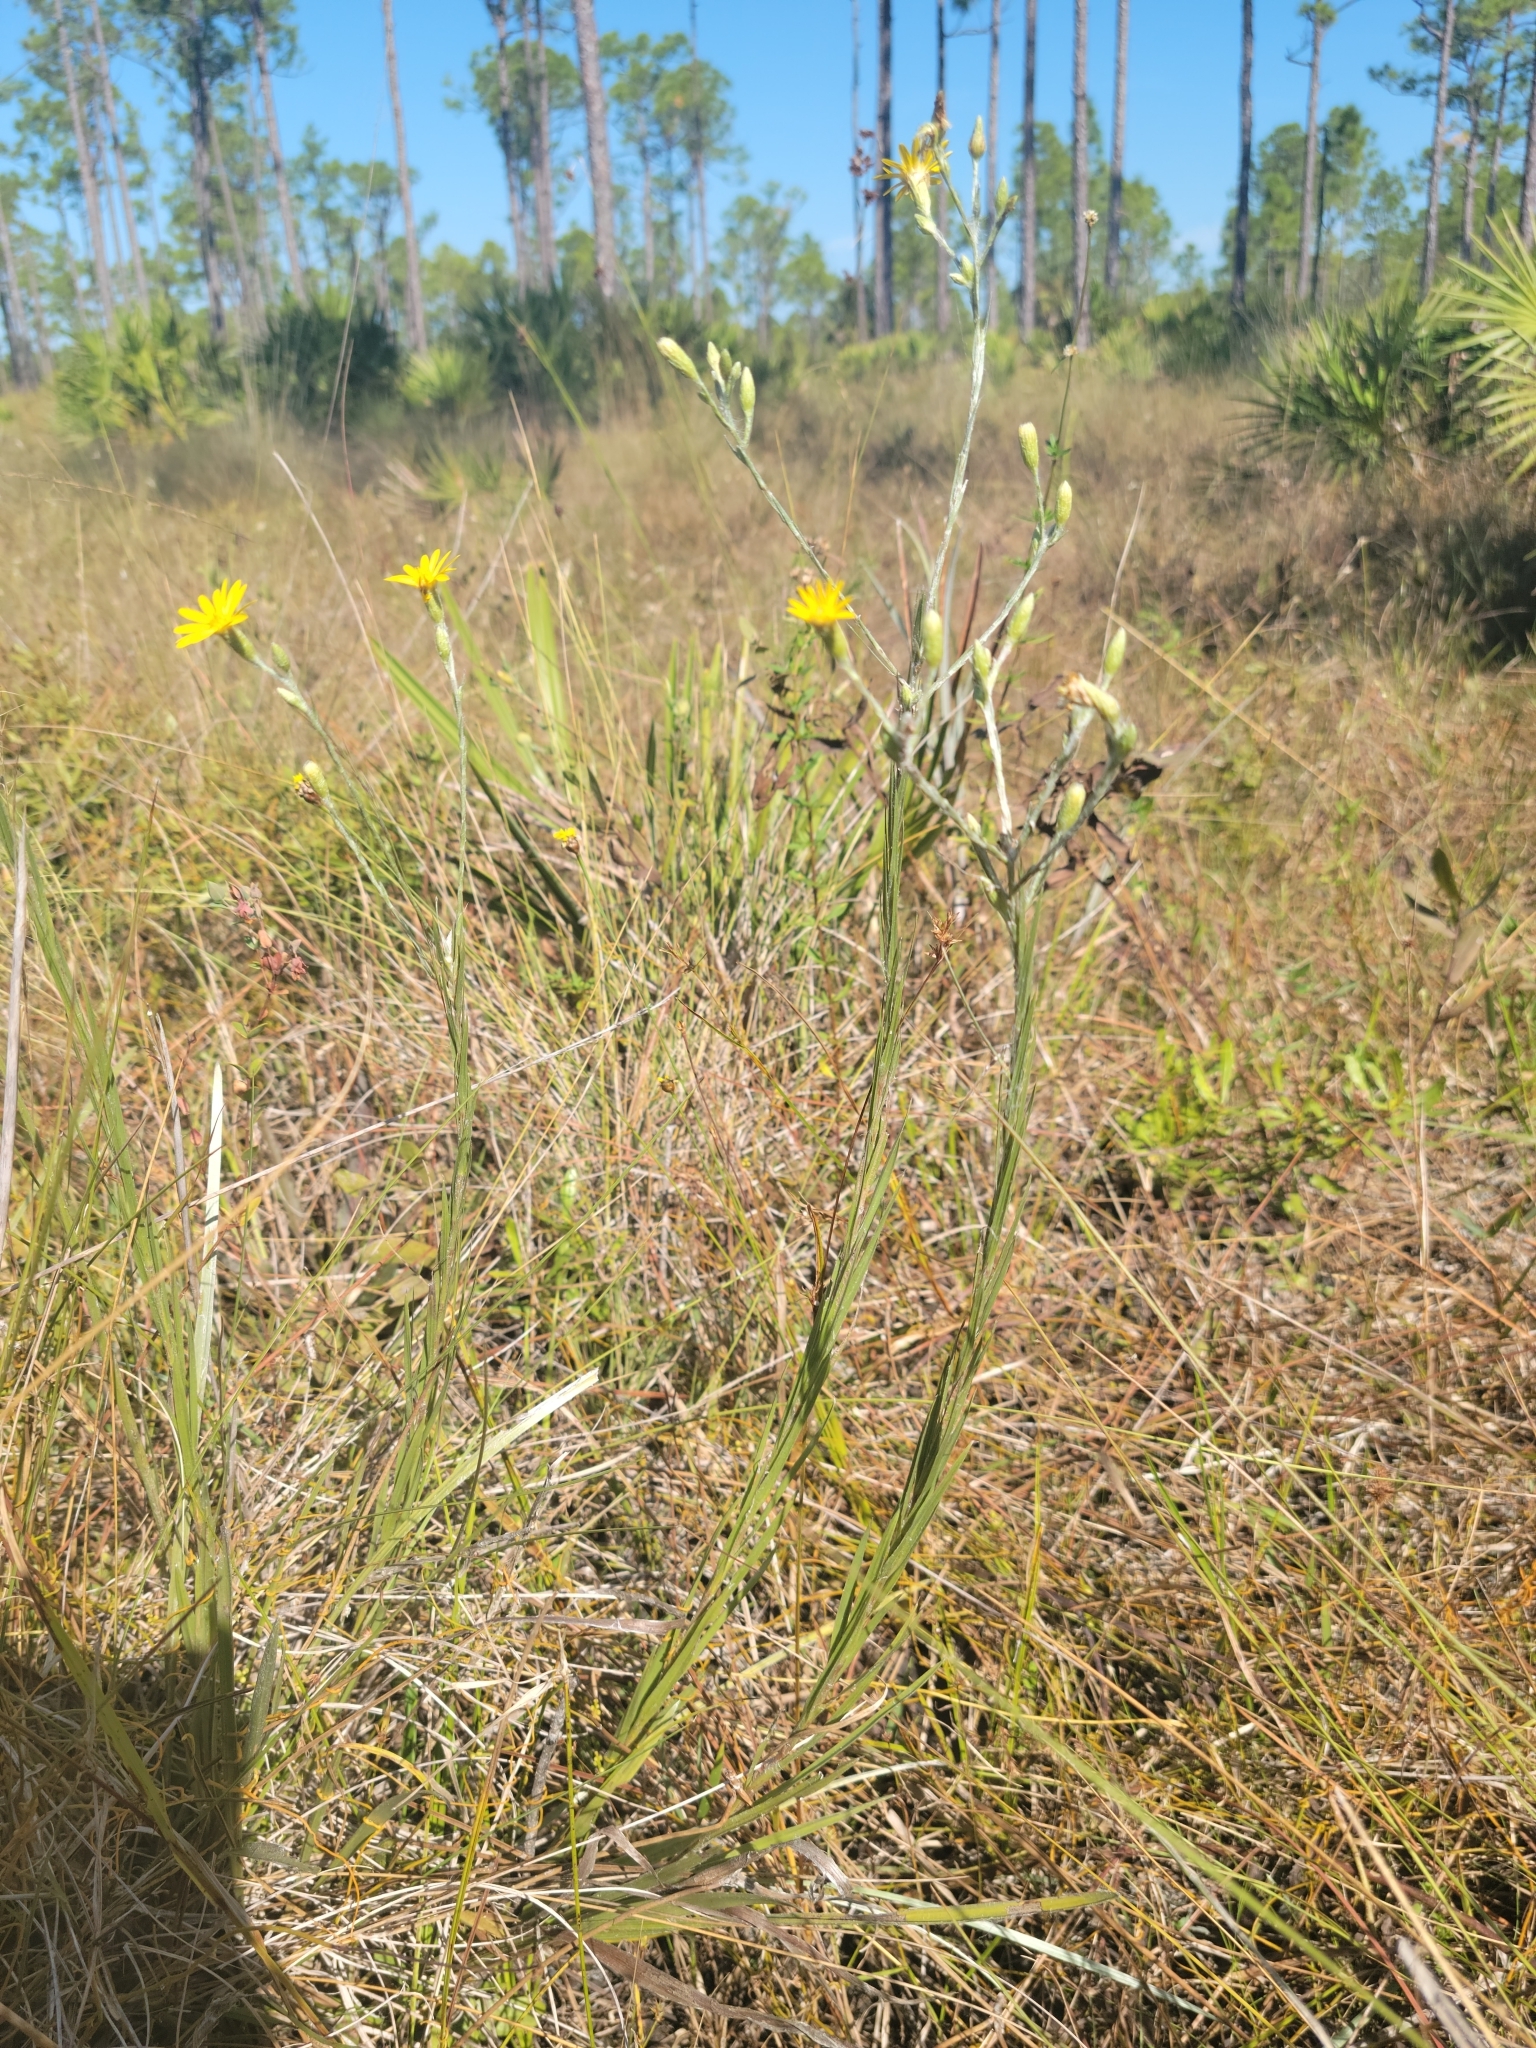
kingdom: Plantae
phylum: Tracheophyta
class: Magnoliopsida
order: Asterales
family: Asteraceae
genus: Pityopsis
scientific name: Pityopsis tracyi
